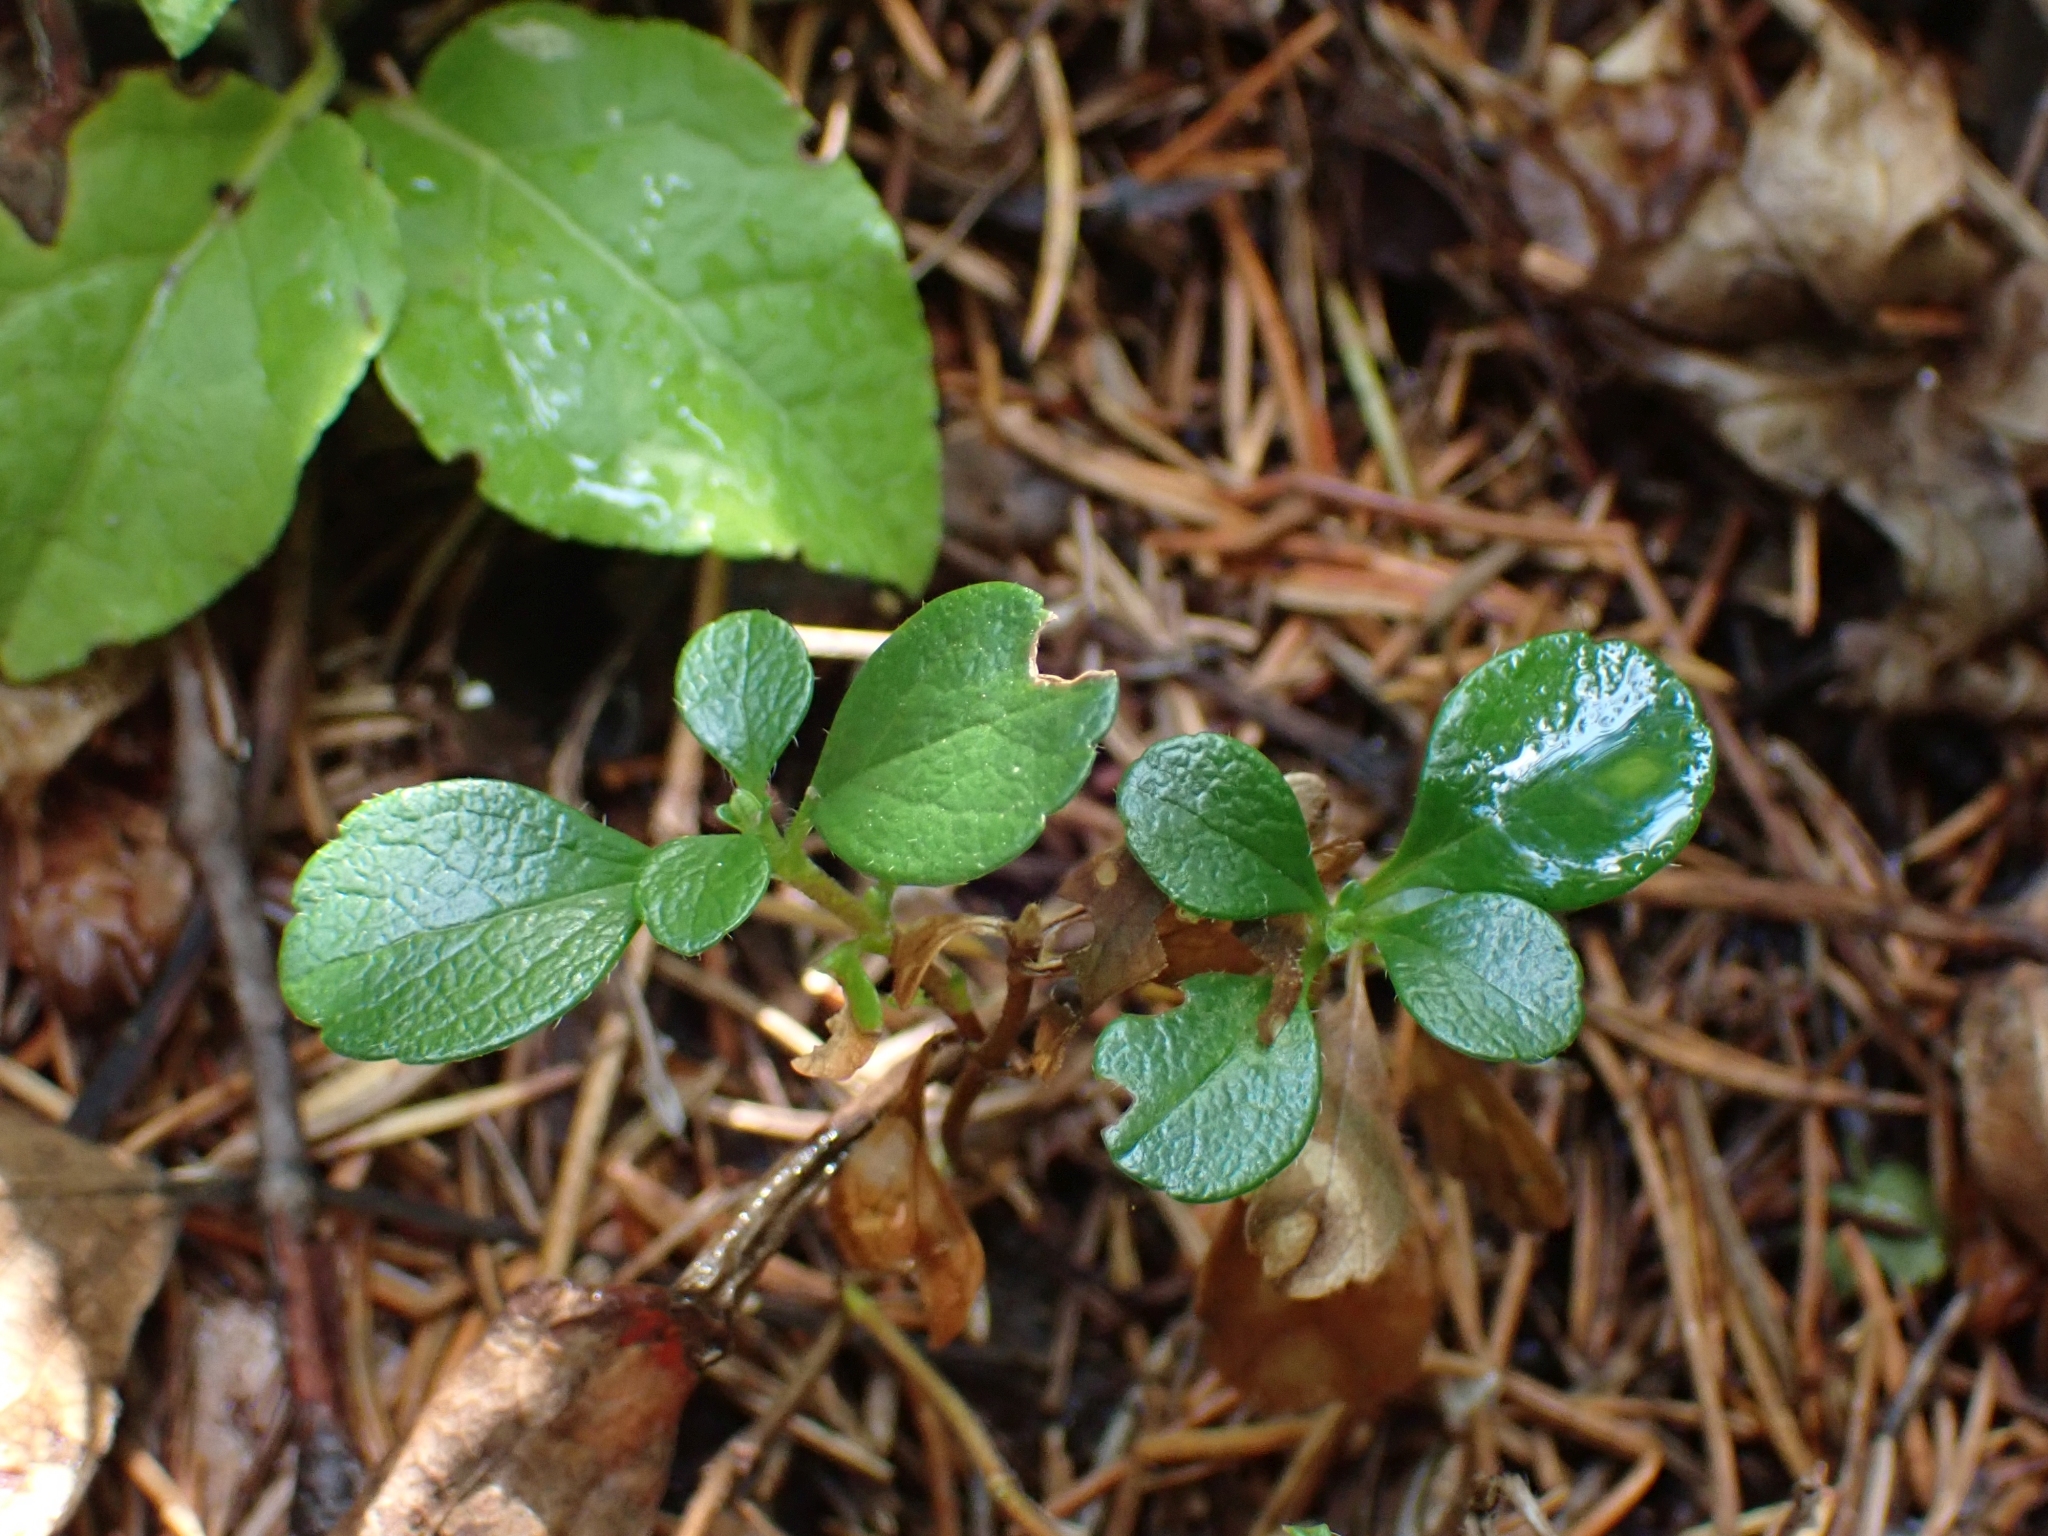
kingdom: Plantae
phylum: Tracheophyta
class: Magnoliopsida
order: Dipsacales
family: Caprifoliaceae
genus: Linnaea
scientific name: Linnaea borealis
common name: Twinflower
